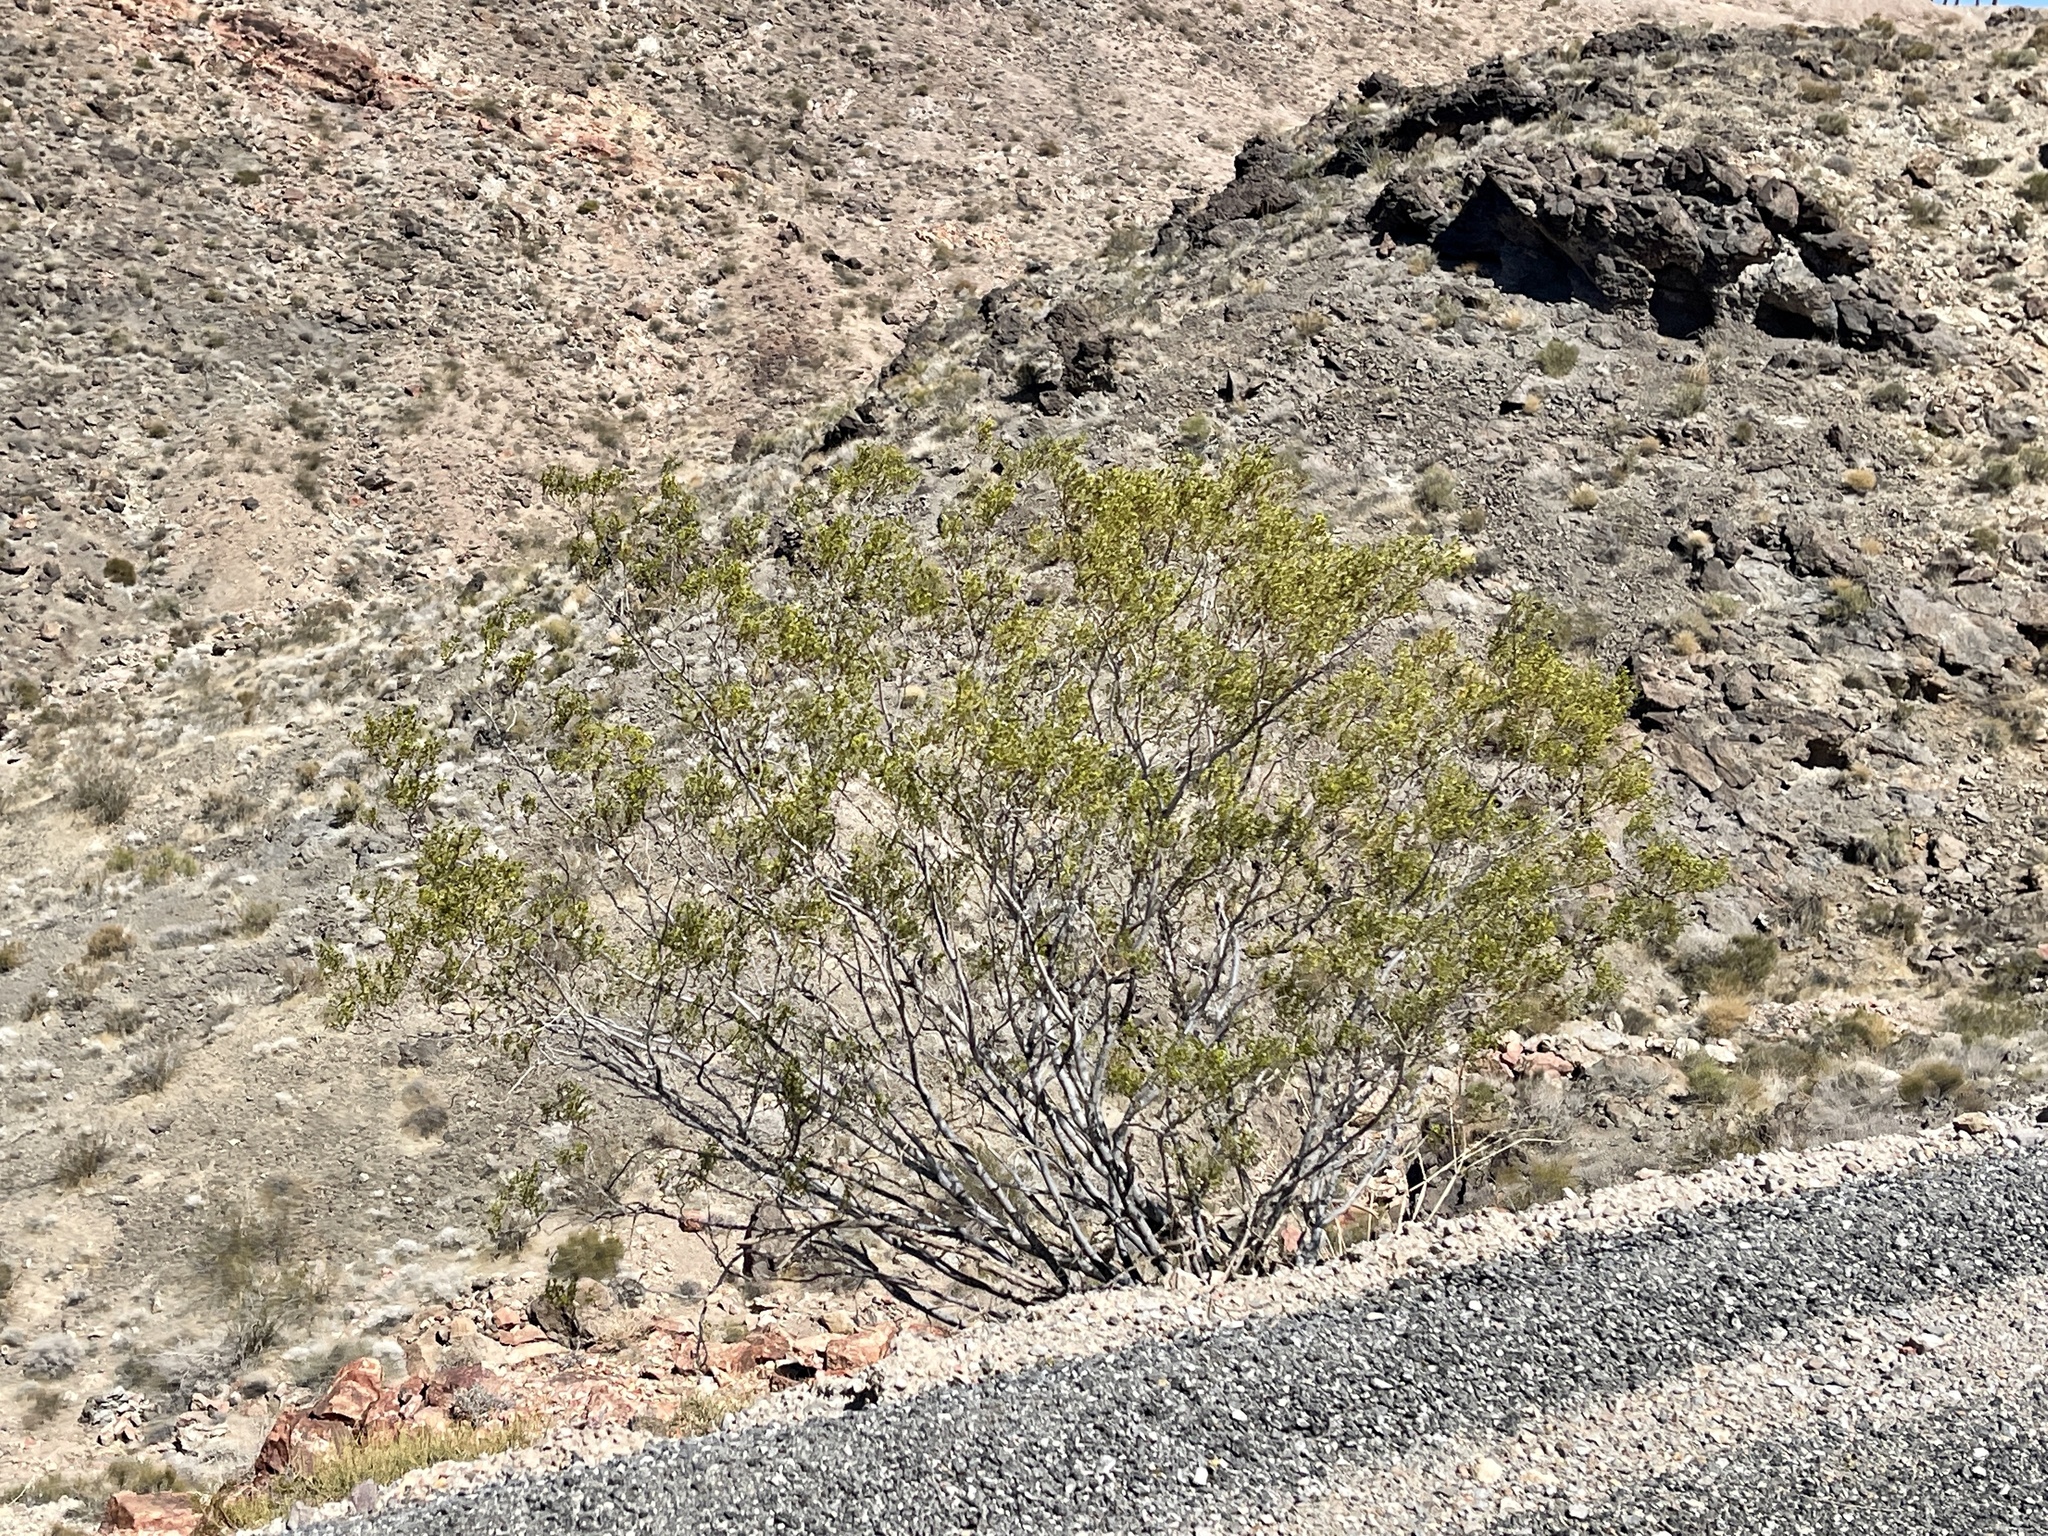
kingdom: Plantae
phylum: Tracheophyta
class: Magnoliopsida
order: Zygophyllales
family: Zygophyllaceae
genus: Larrea
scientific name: Larrea tridentata
